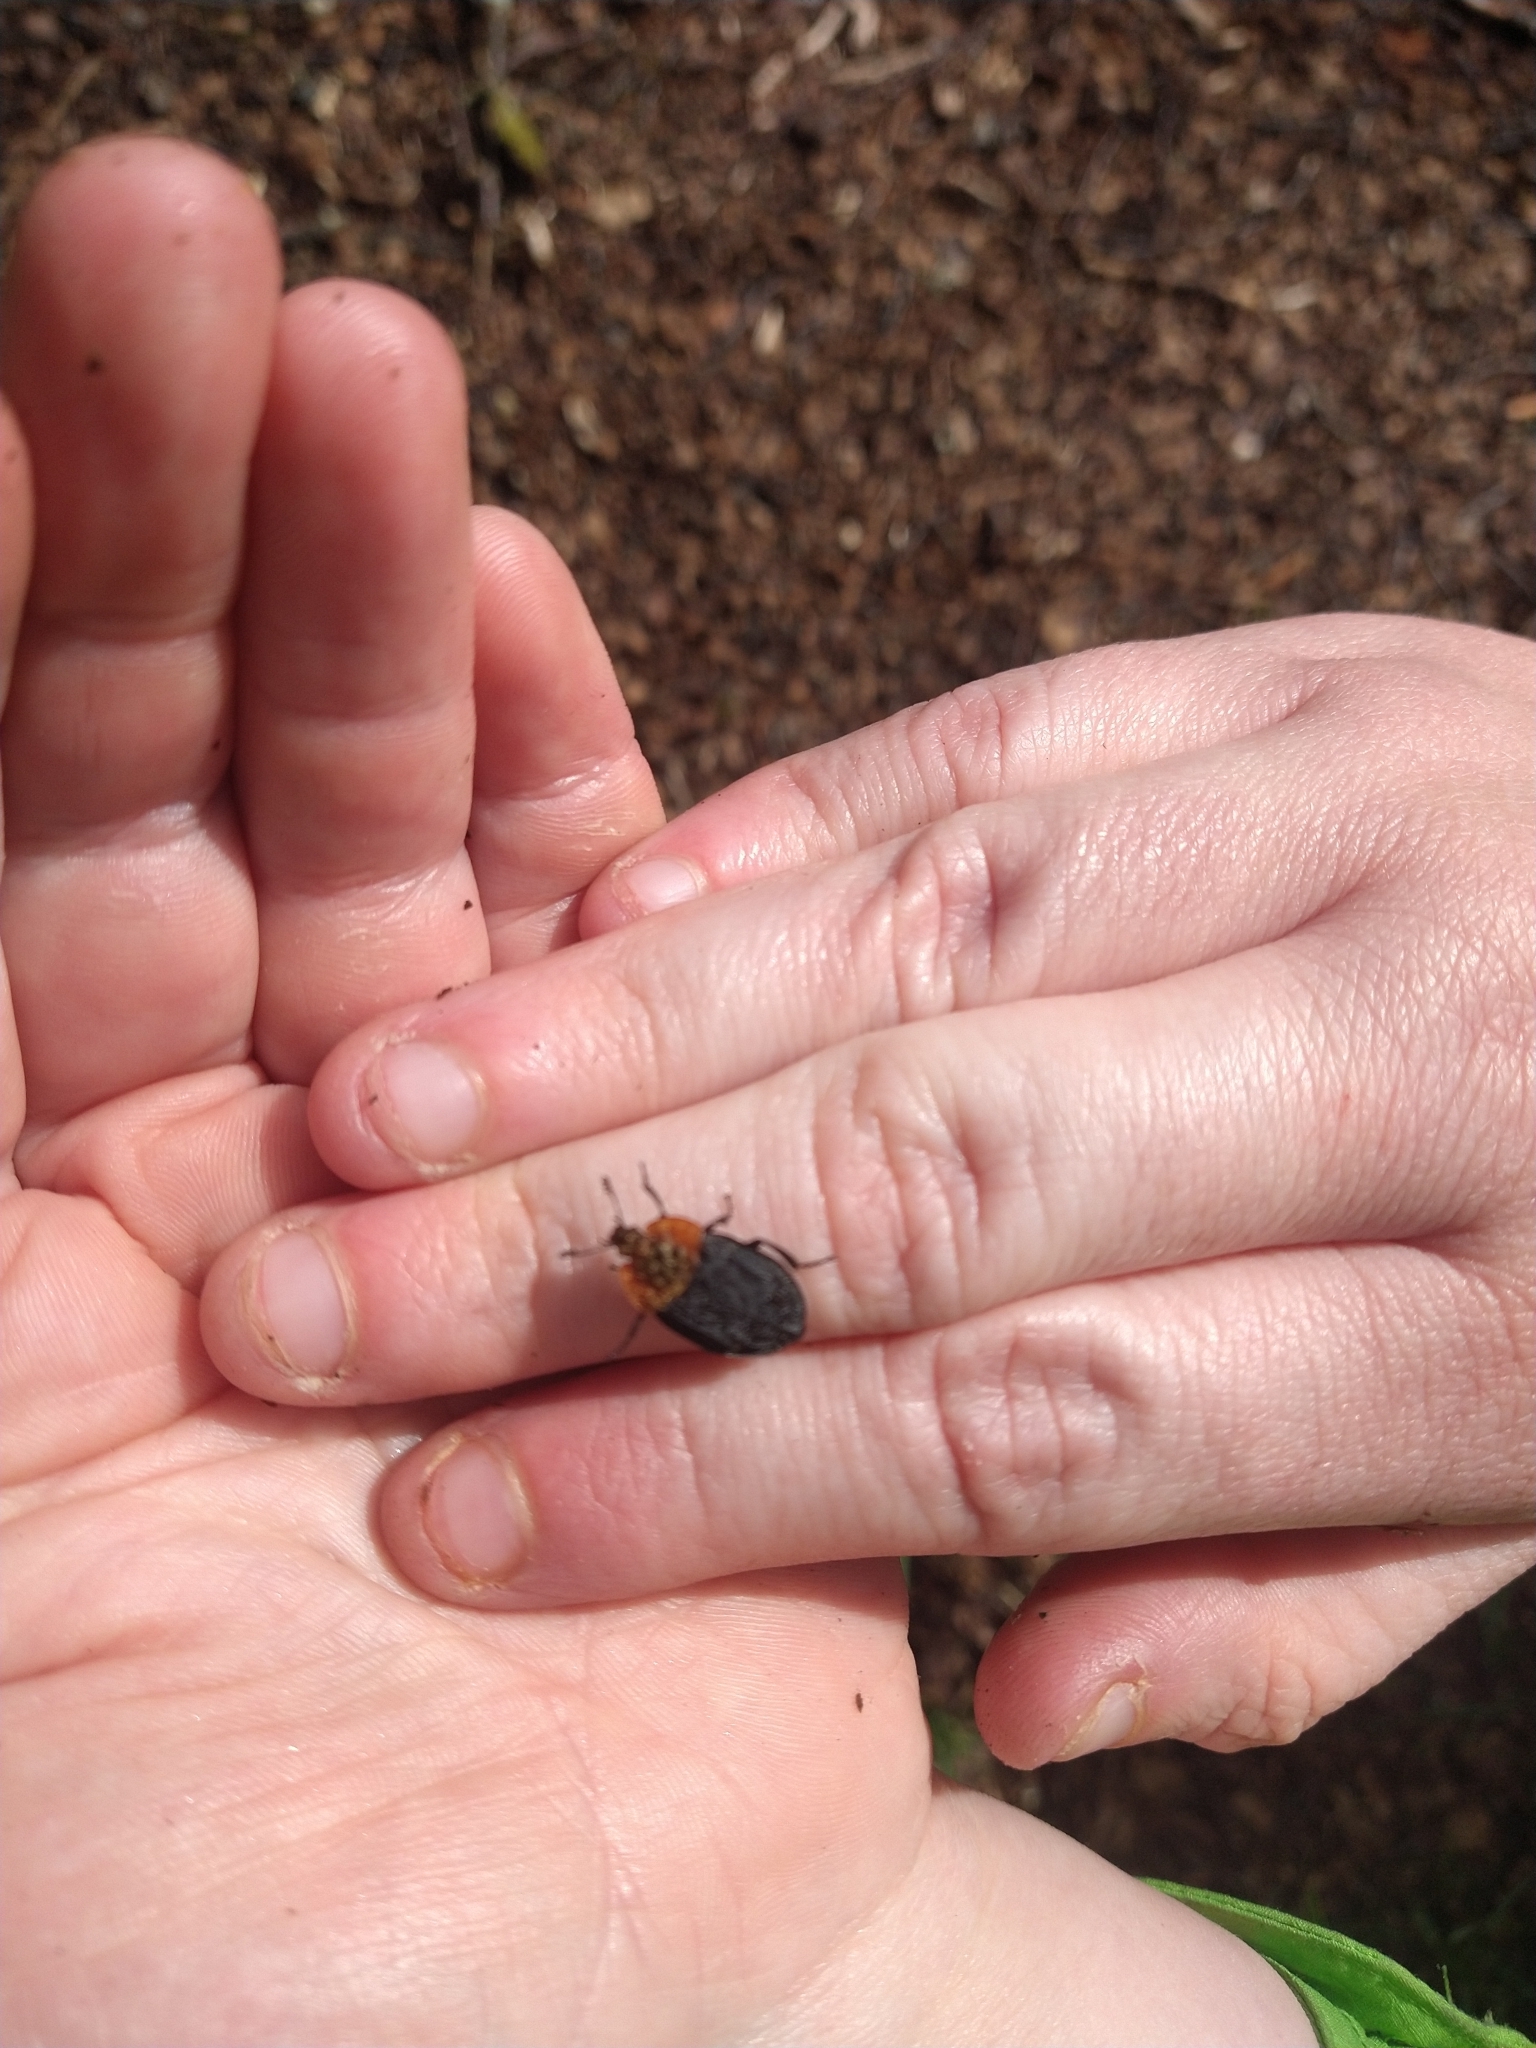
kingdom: Animalia
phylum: Arthropoda
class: Insecta
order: Coleoptera
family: Staphylinidae
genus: Oiceoptoma
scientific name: Oiceoptoma thoracicum
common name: Red-breasted carrion beetle
